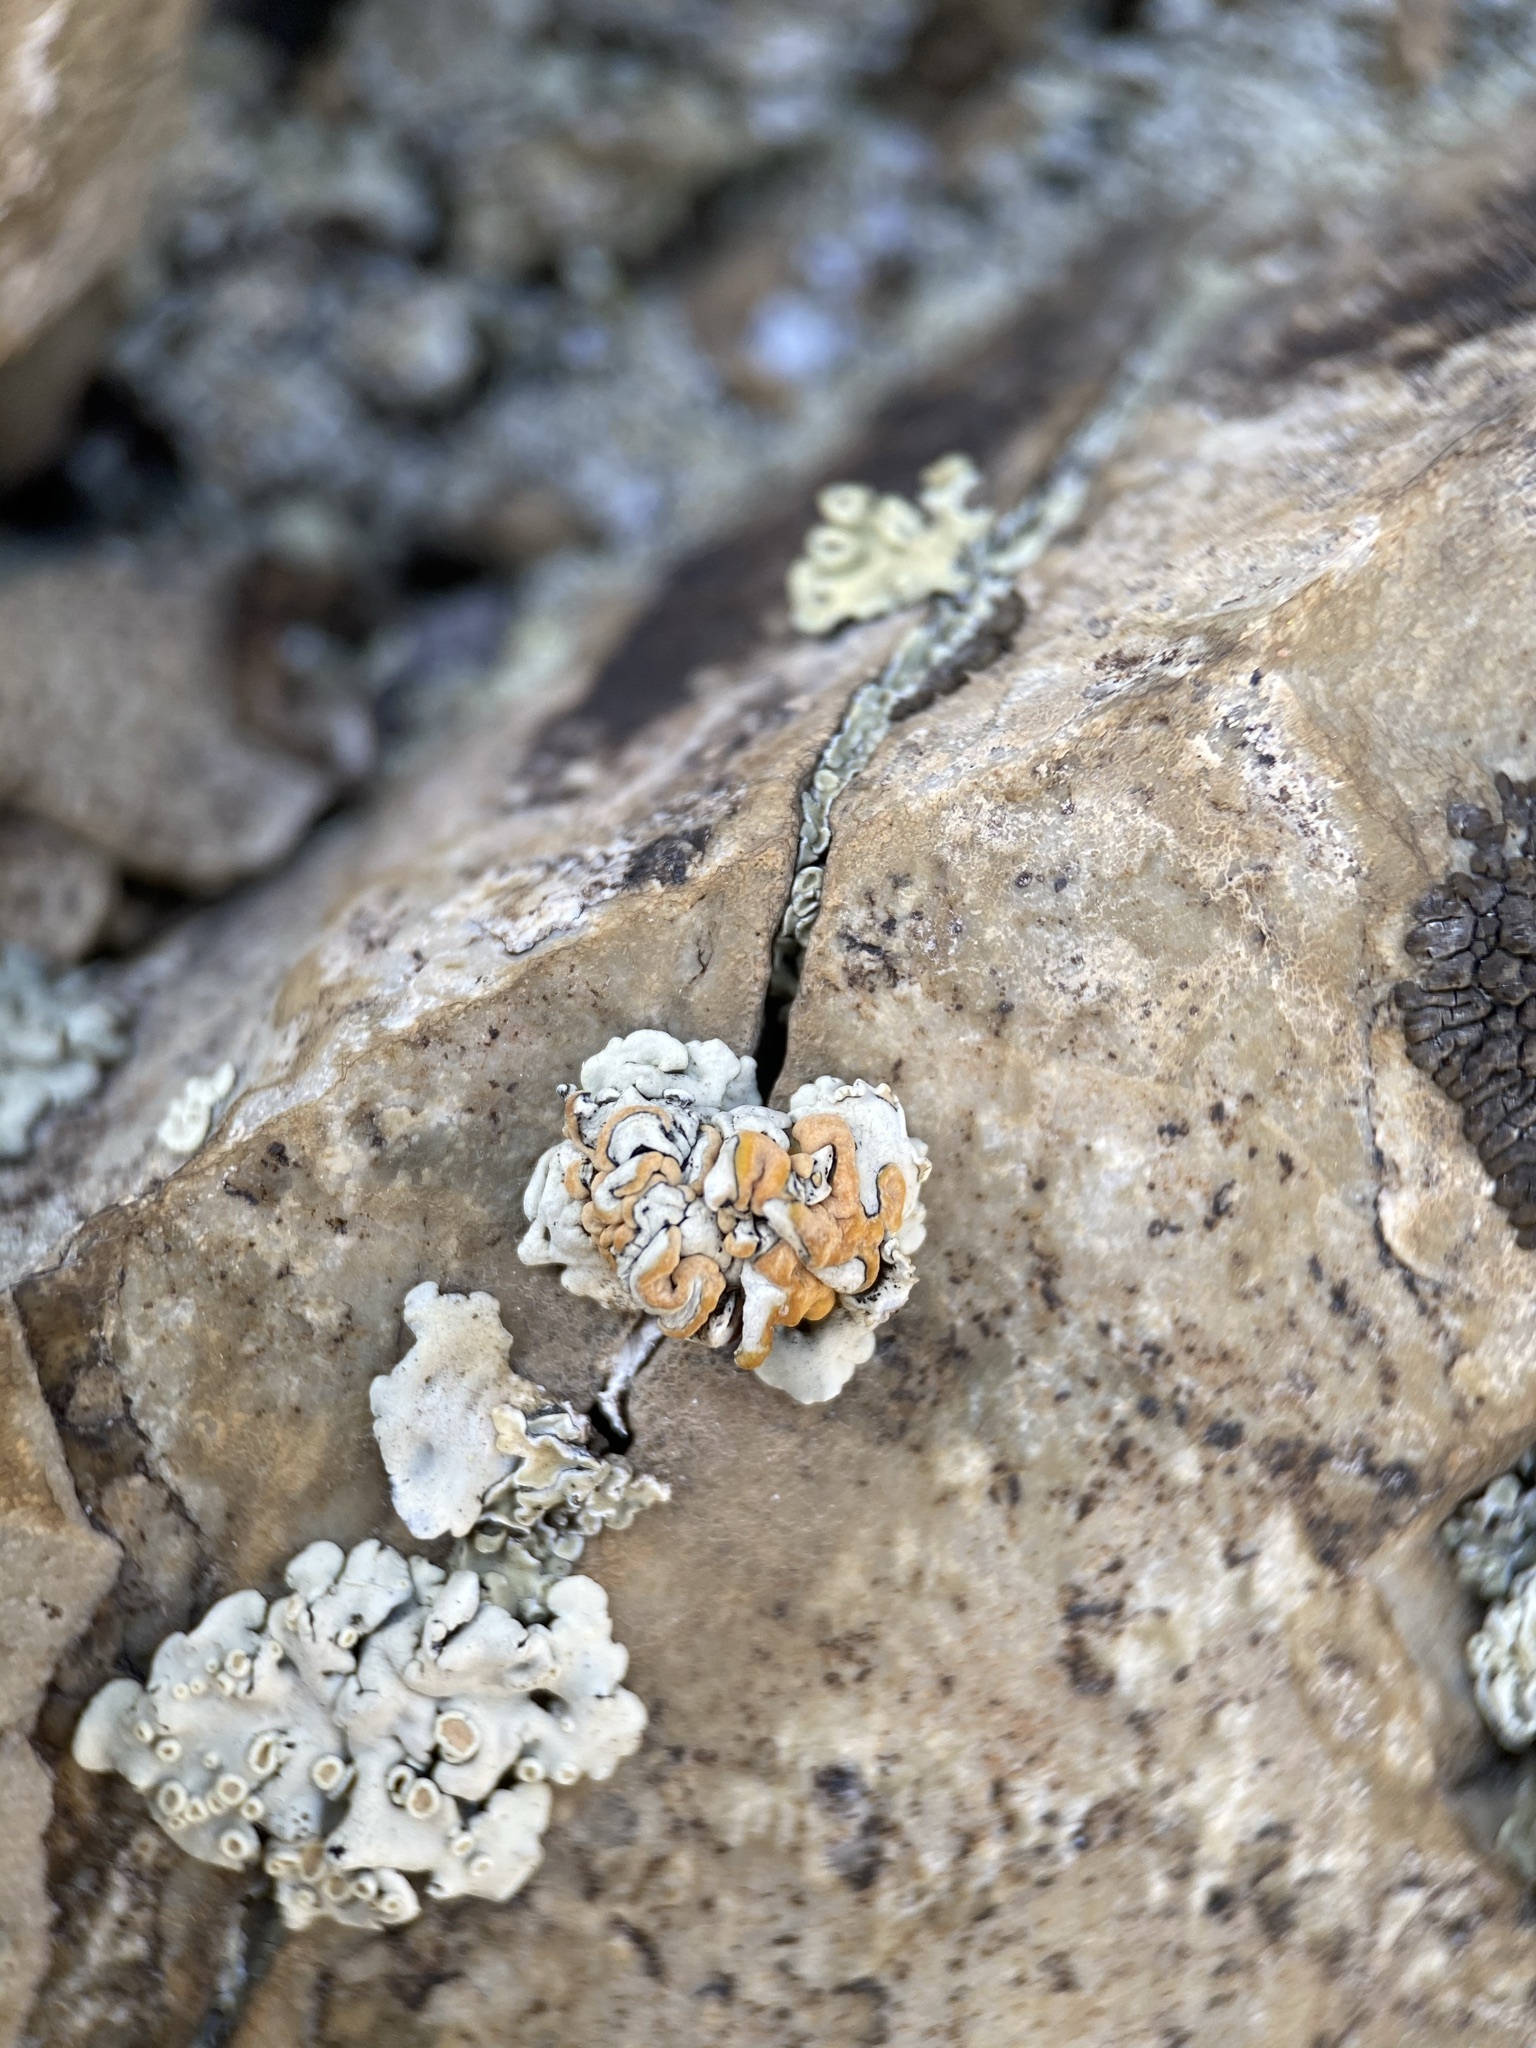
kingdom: Fungi
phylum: Ascomycota
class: Lecanoromycetes
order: Lecanorales
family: Lecanoraceae
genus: Omphalodina
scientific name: Omphalodina chrysoleuca
